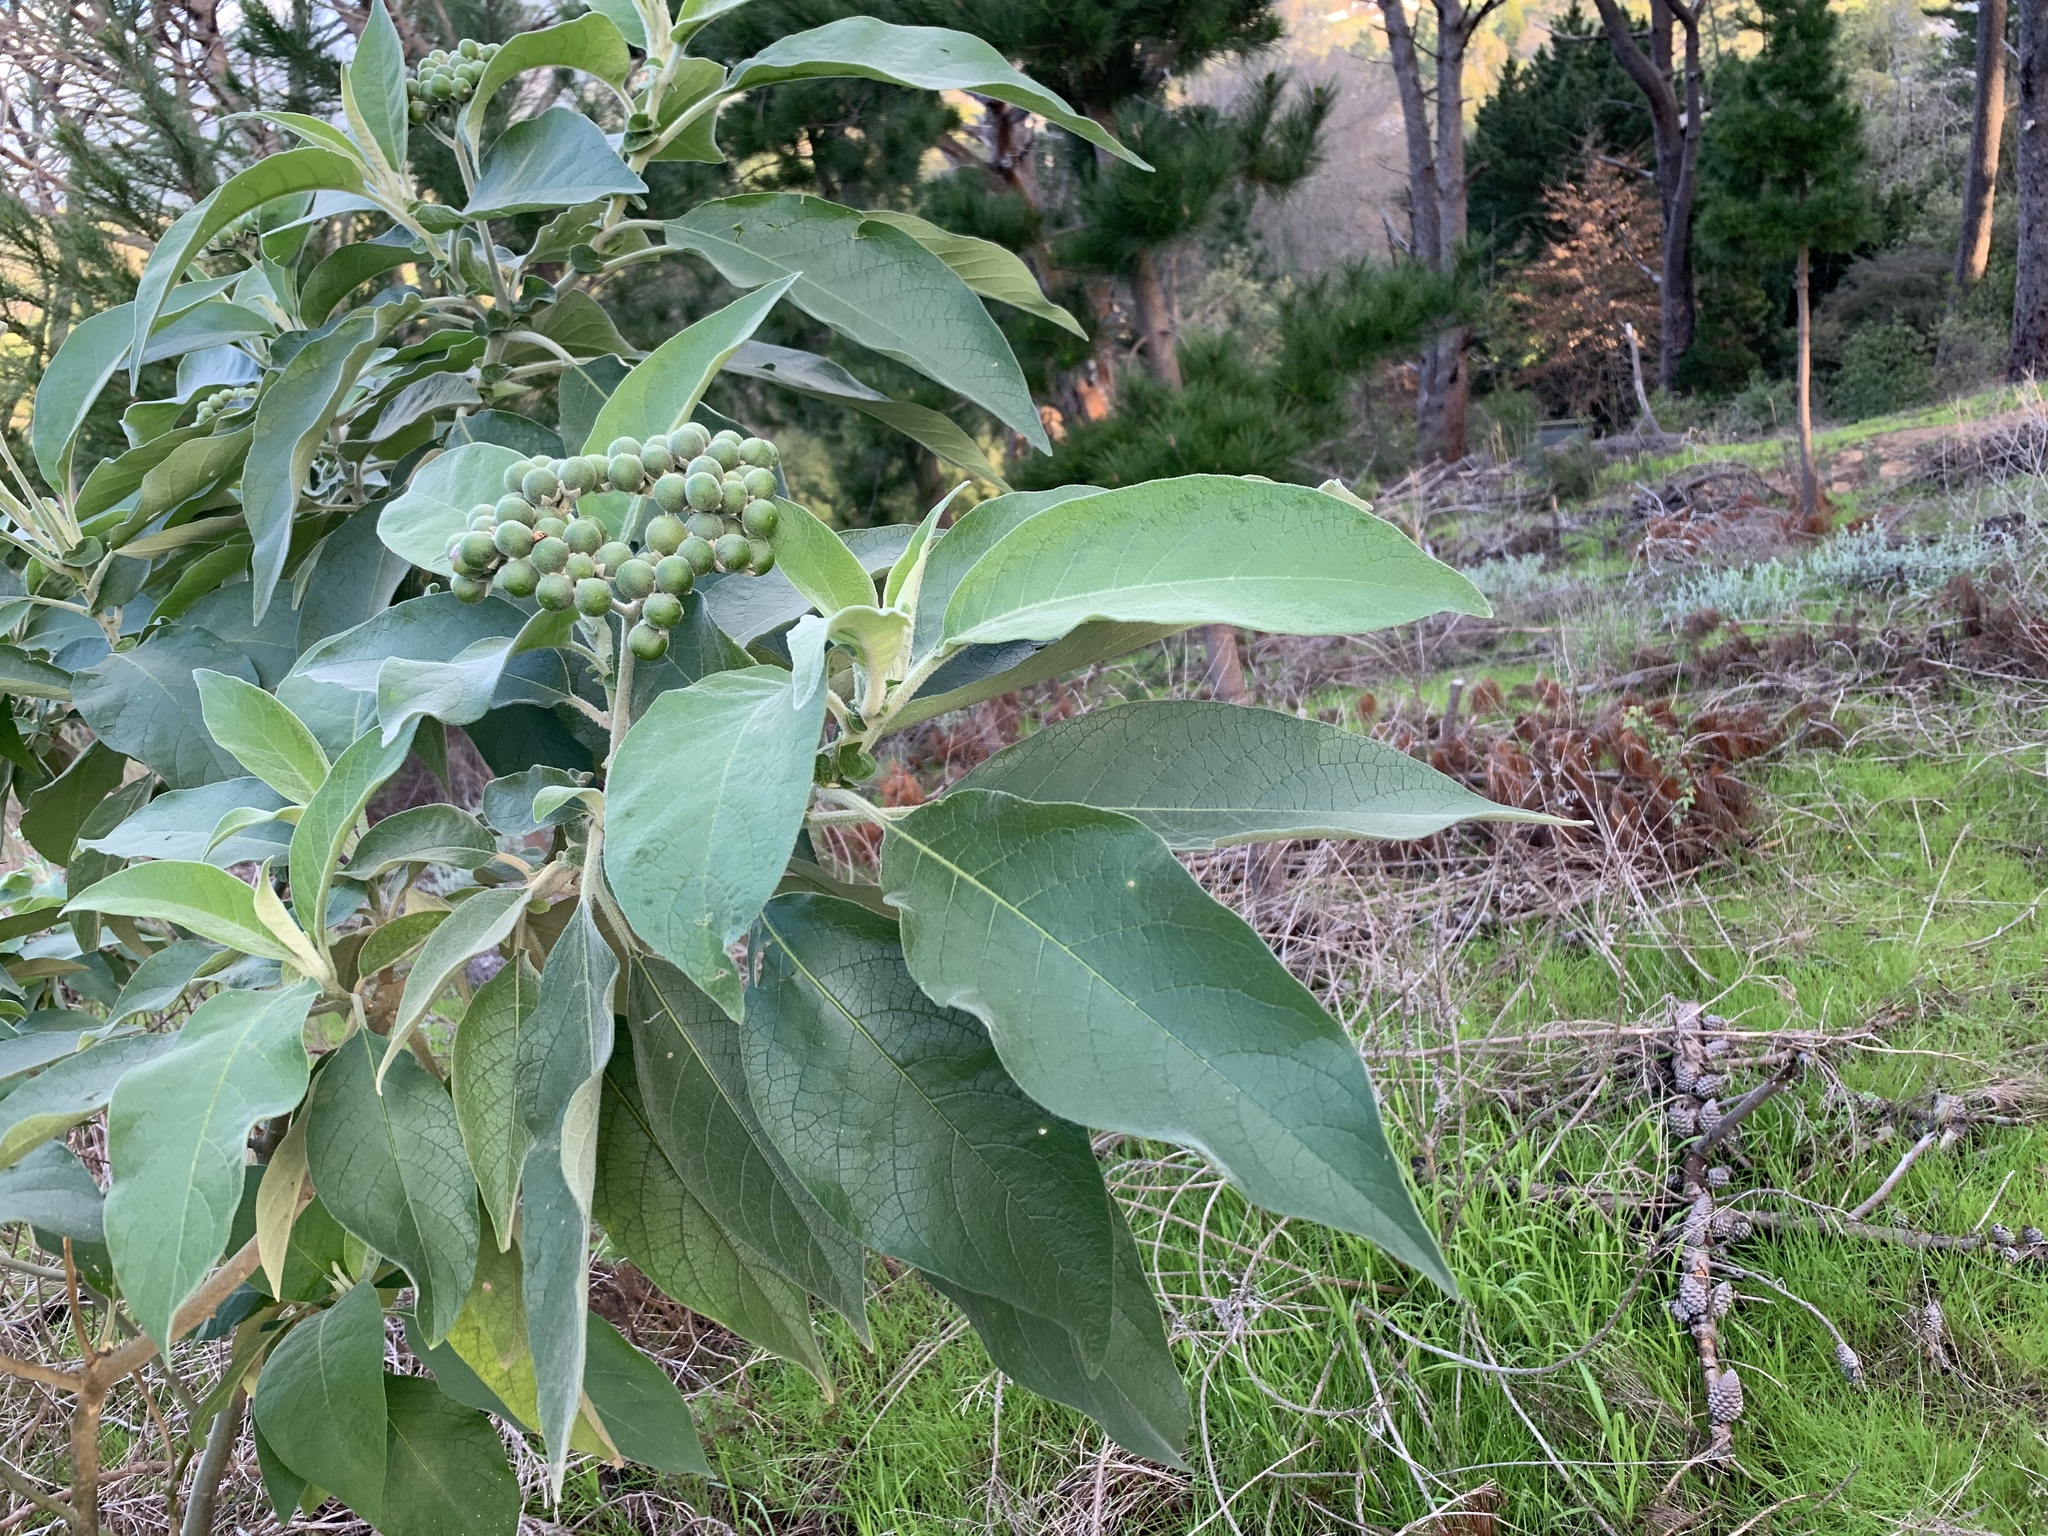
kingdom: Plantae
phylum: Tracheophyta
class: Magnoliopsida
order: Solanales
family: Solanaceae
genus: Solanum
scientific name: Solanum mauritianum
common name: Earleaf nightshade
